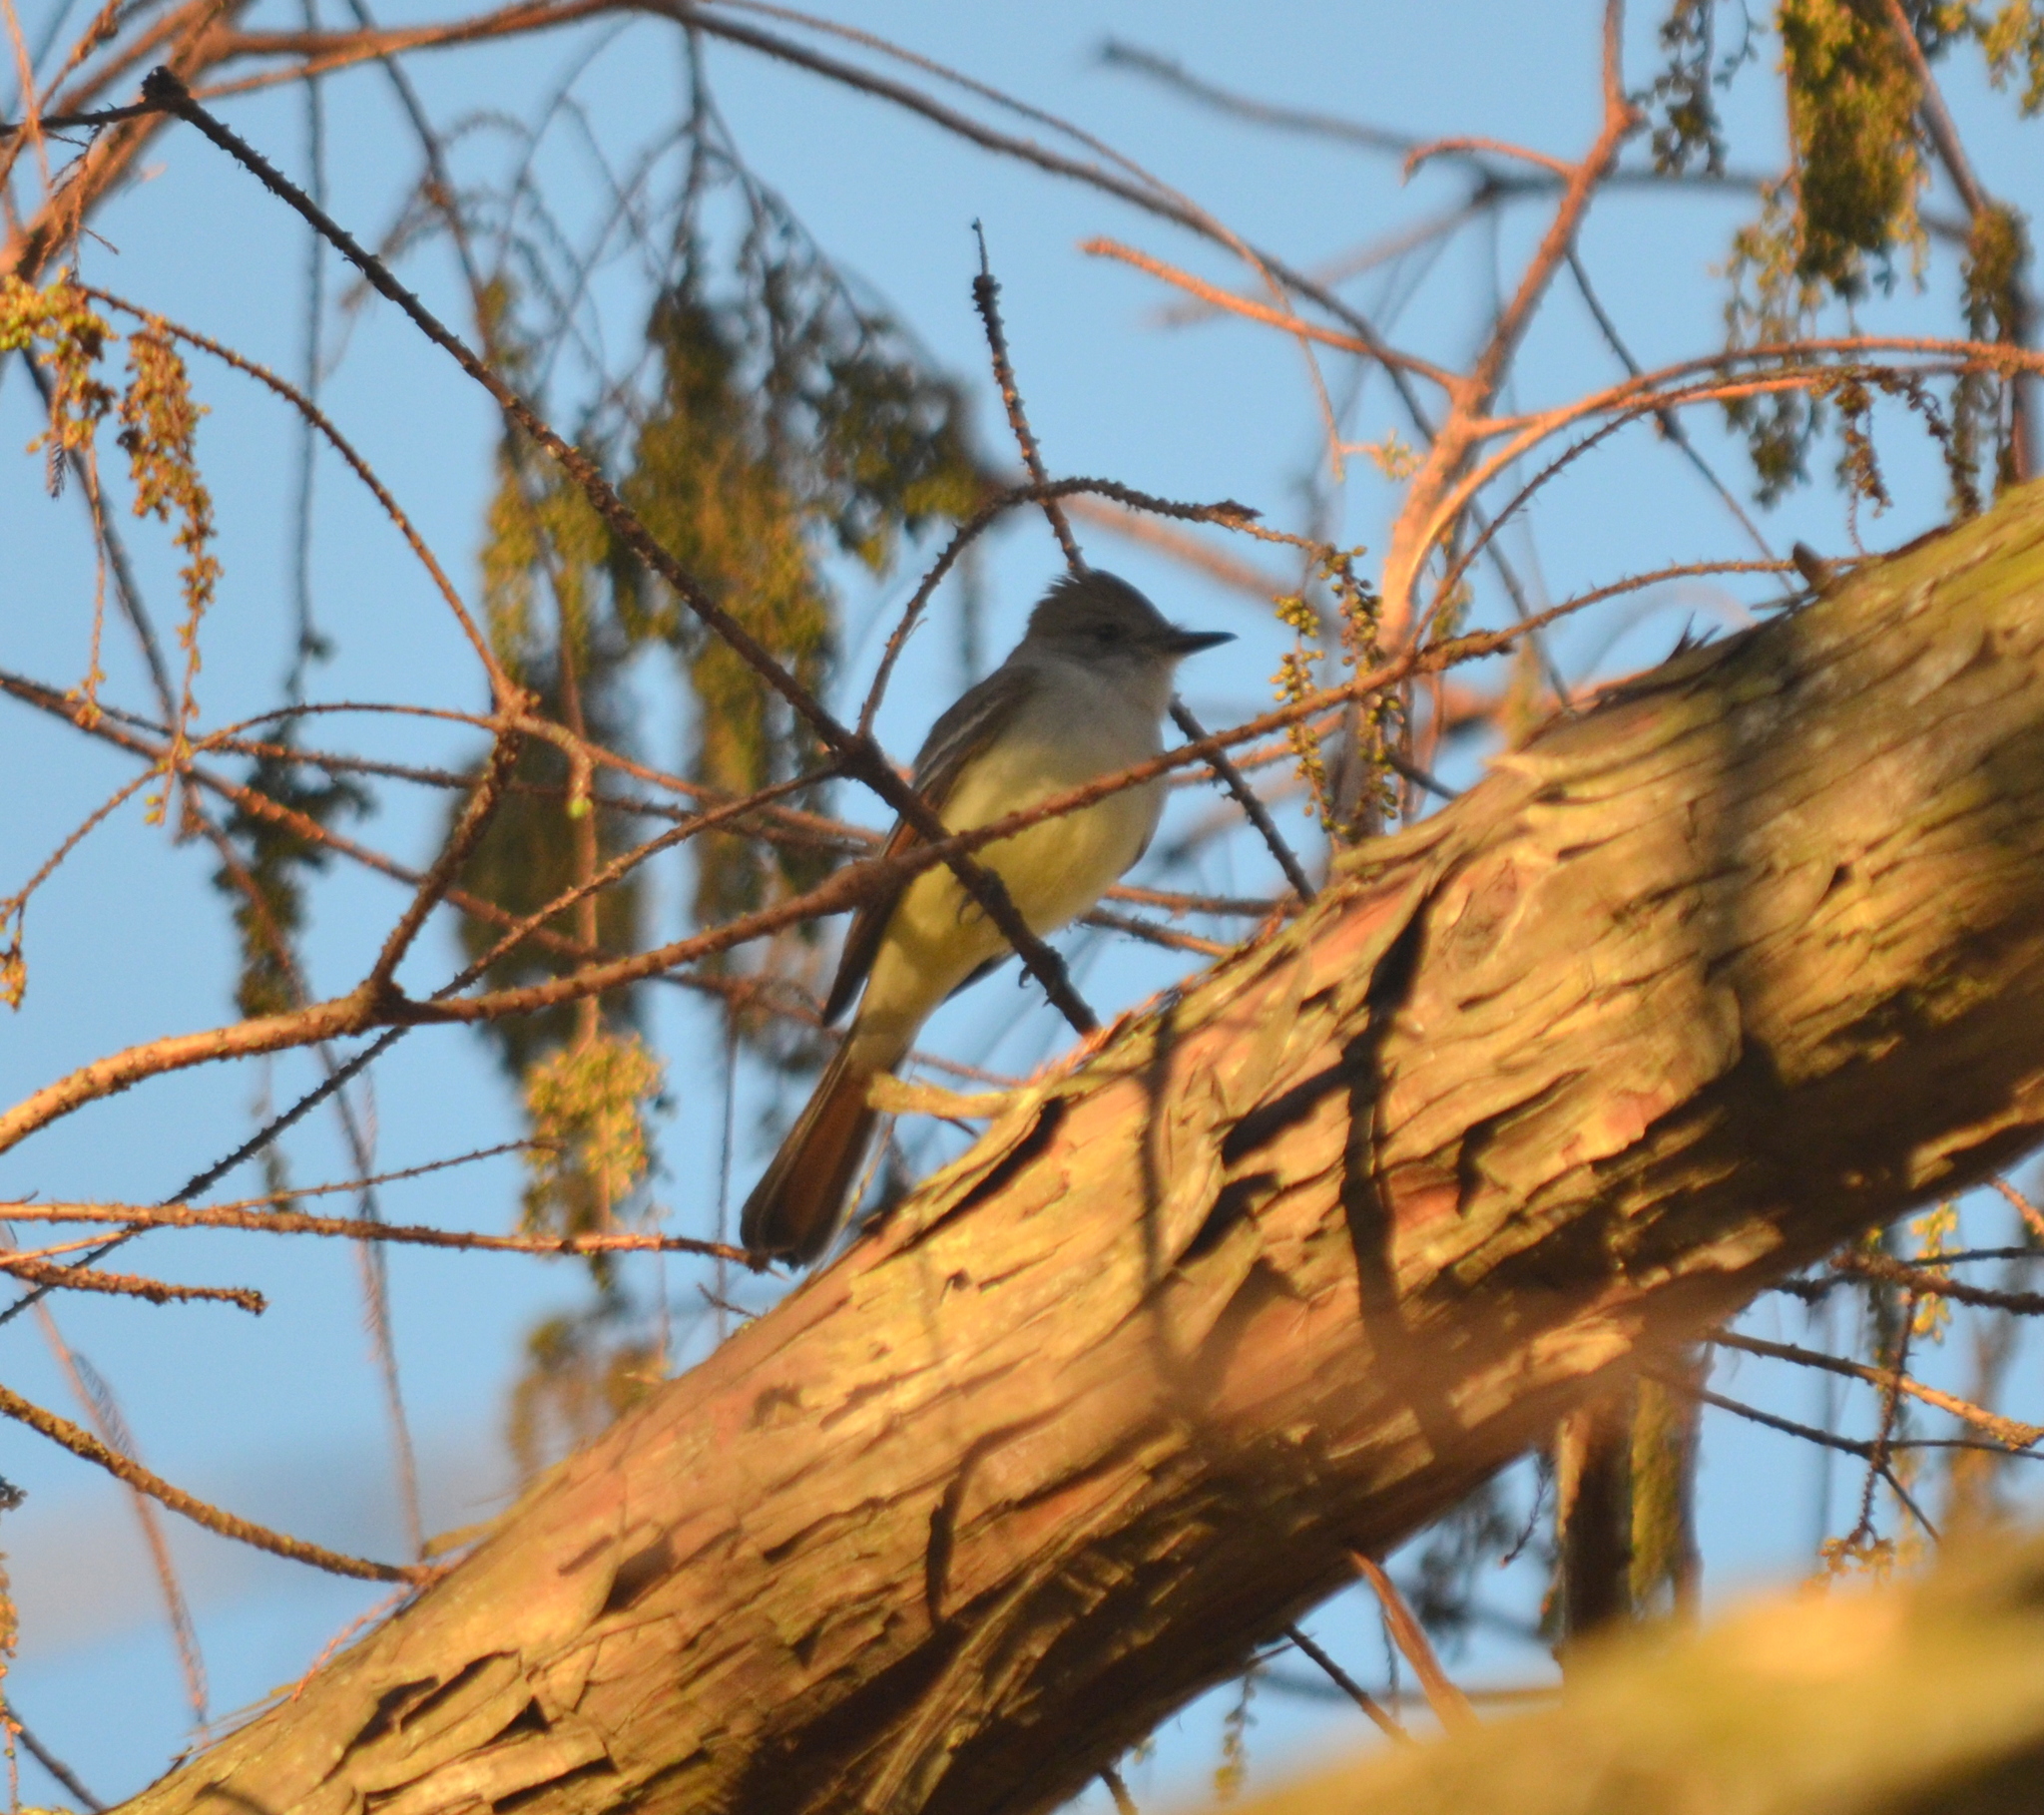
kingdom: Animalia
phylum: Chordata
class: Aves
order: Passeriformes
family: Tyrannidae
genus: Myiarchus
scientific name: Myiarchus cinerascens
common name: Ash-throated flycatcher
